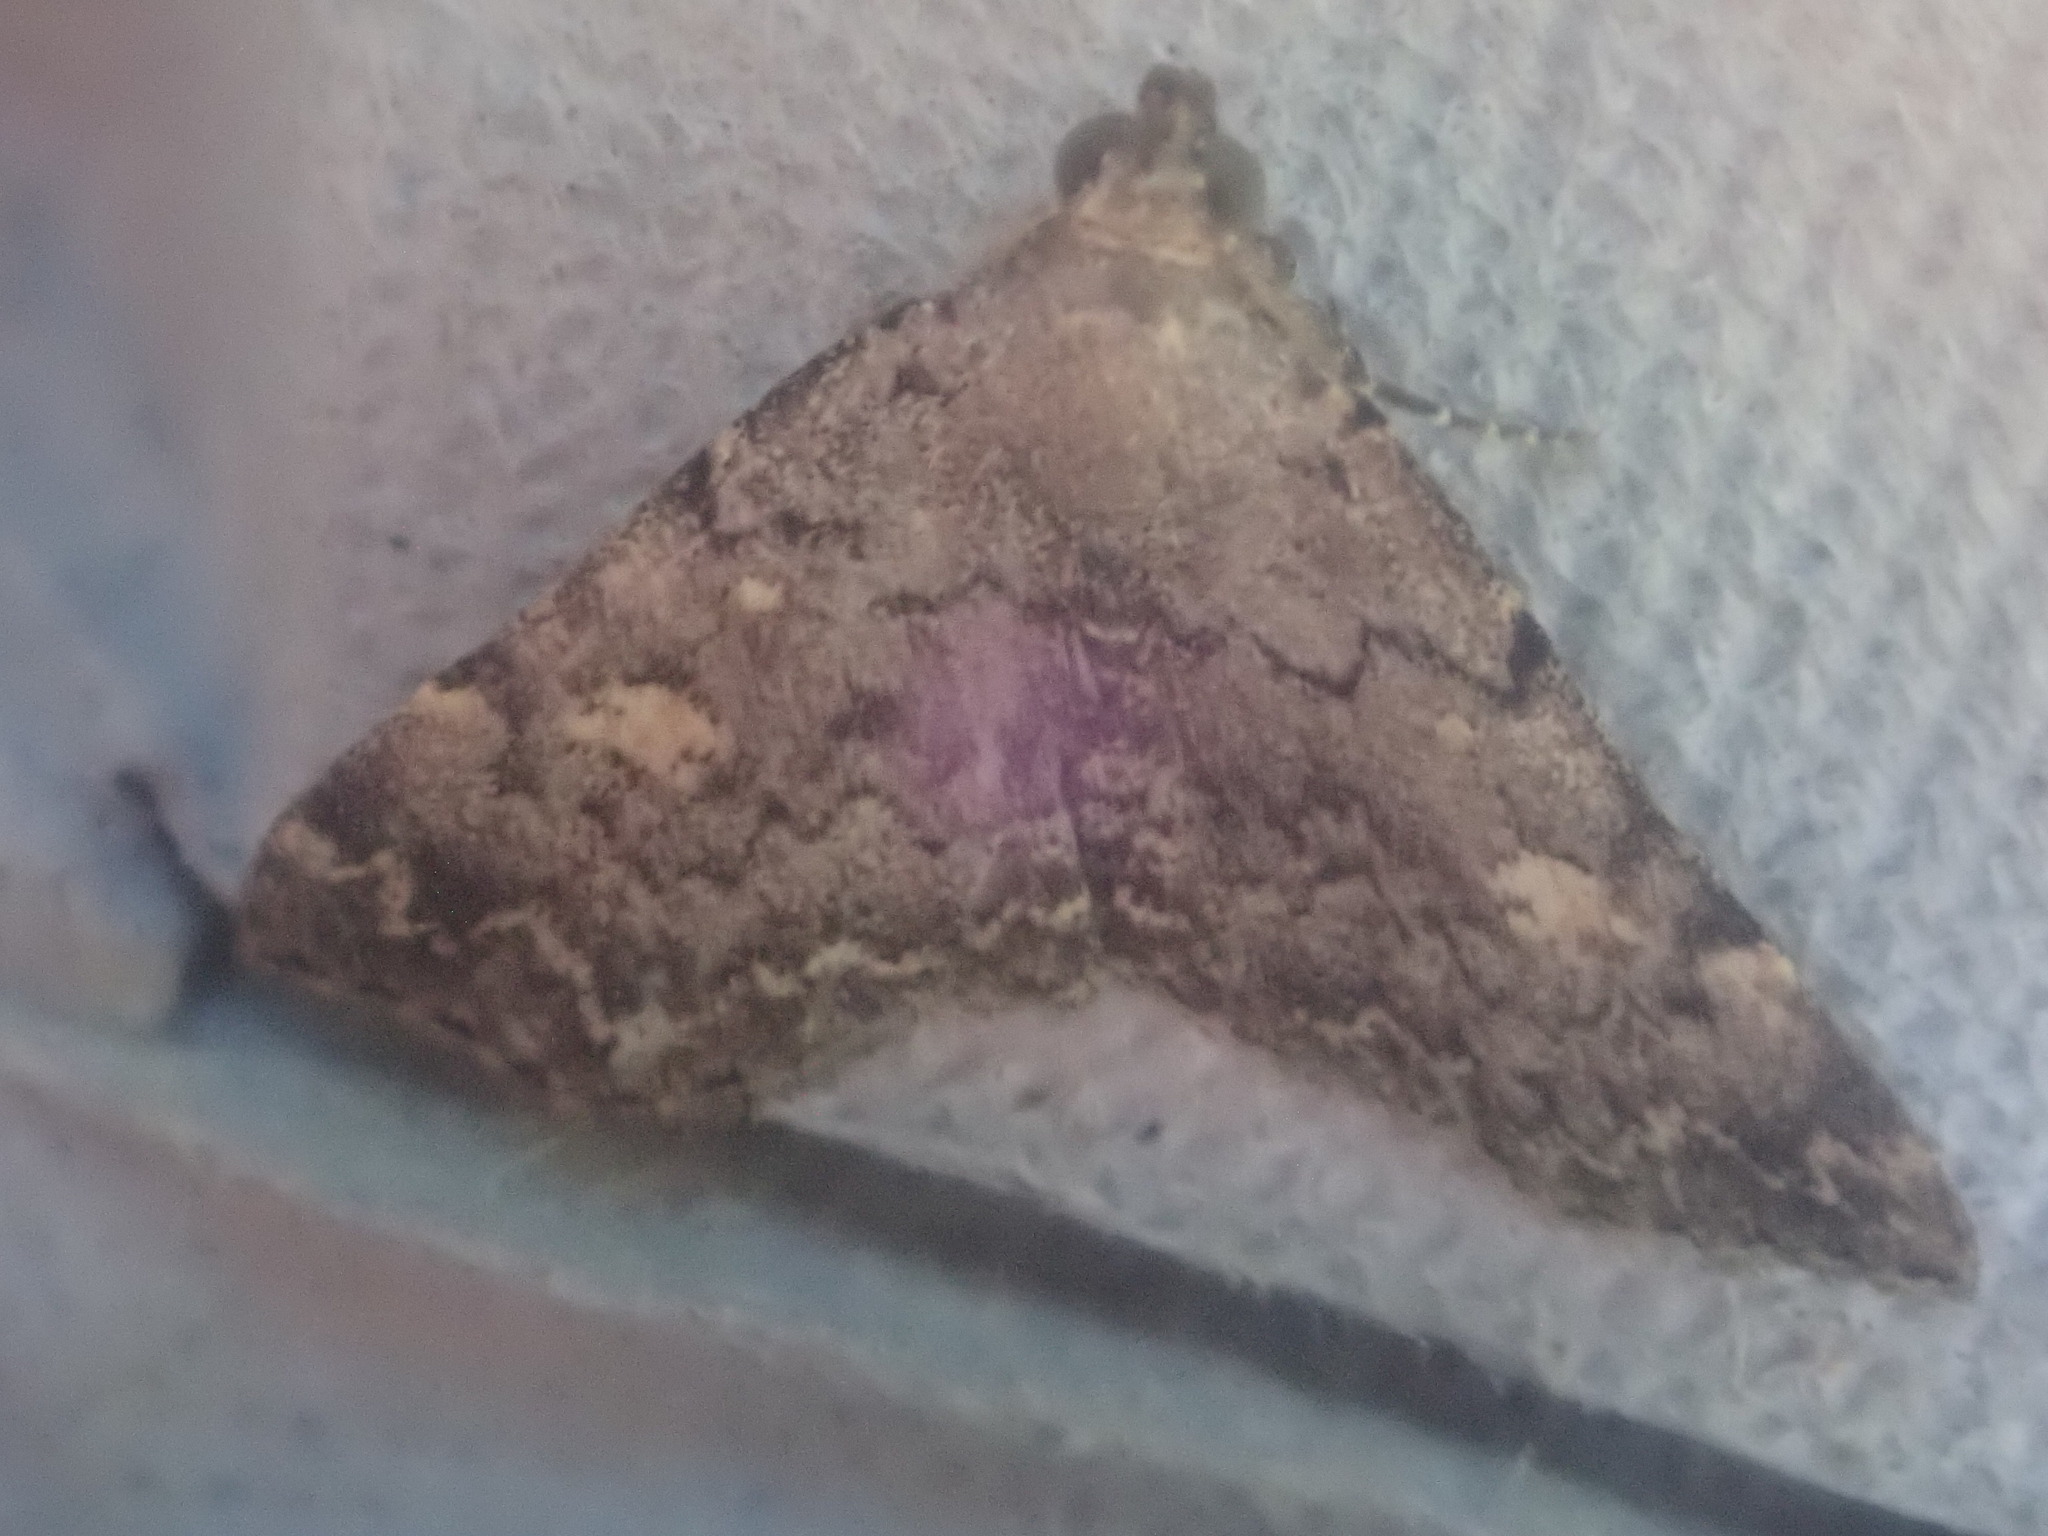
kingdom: Animalia
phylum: Arthropoda
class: Insecta
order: Lepidoptera
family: Erebidae
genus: Idia
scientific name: Idia aemula
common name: Common idia moth
